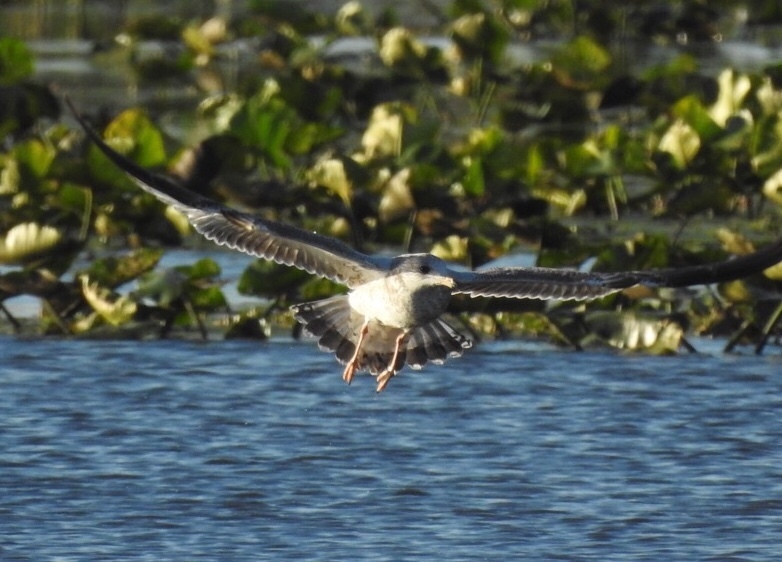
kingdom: Animalia
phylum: Chordata
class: Aves
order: Charadriiformes
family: Laridae
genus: Larus
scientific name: Larus delawarensis
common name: Ring-billed gull
